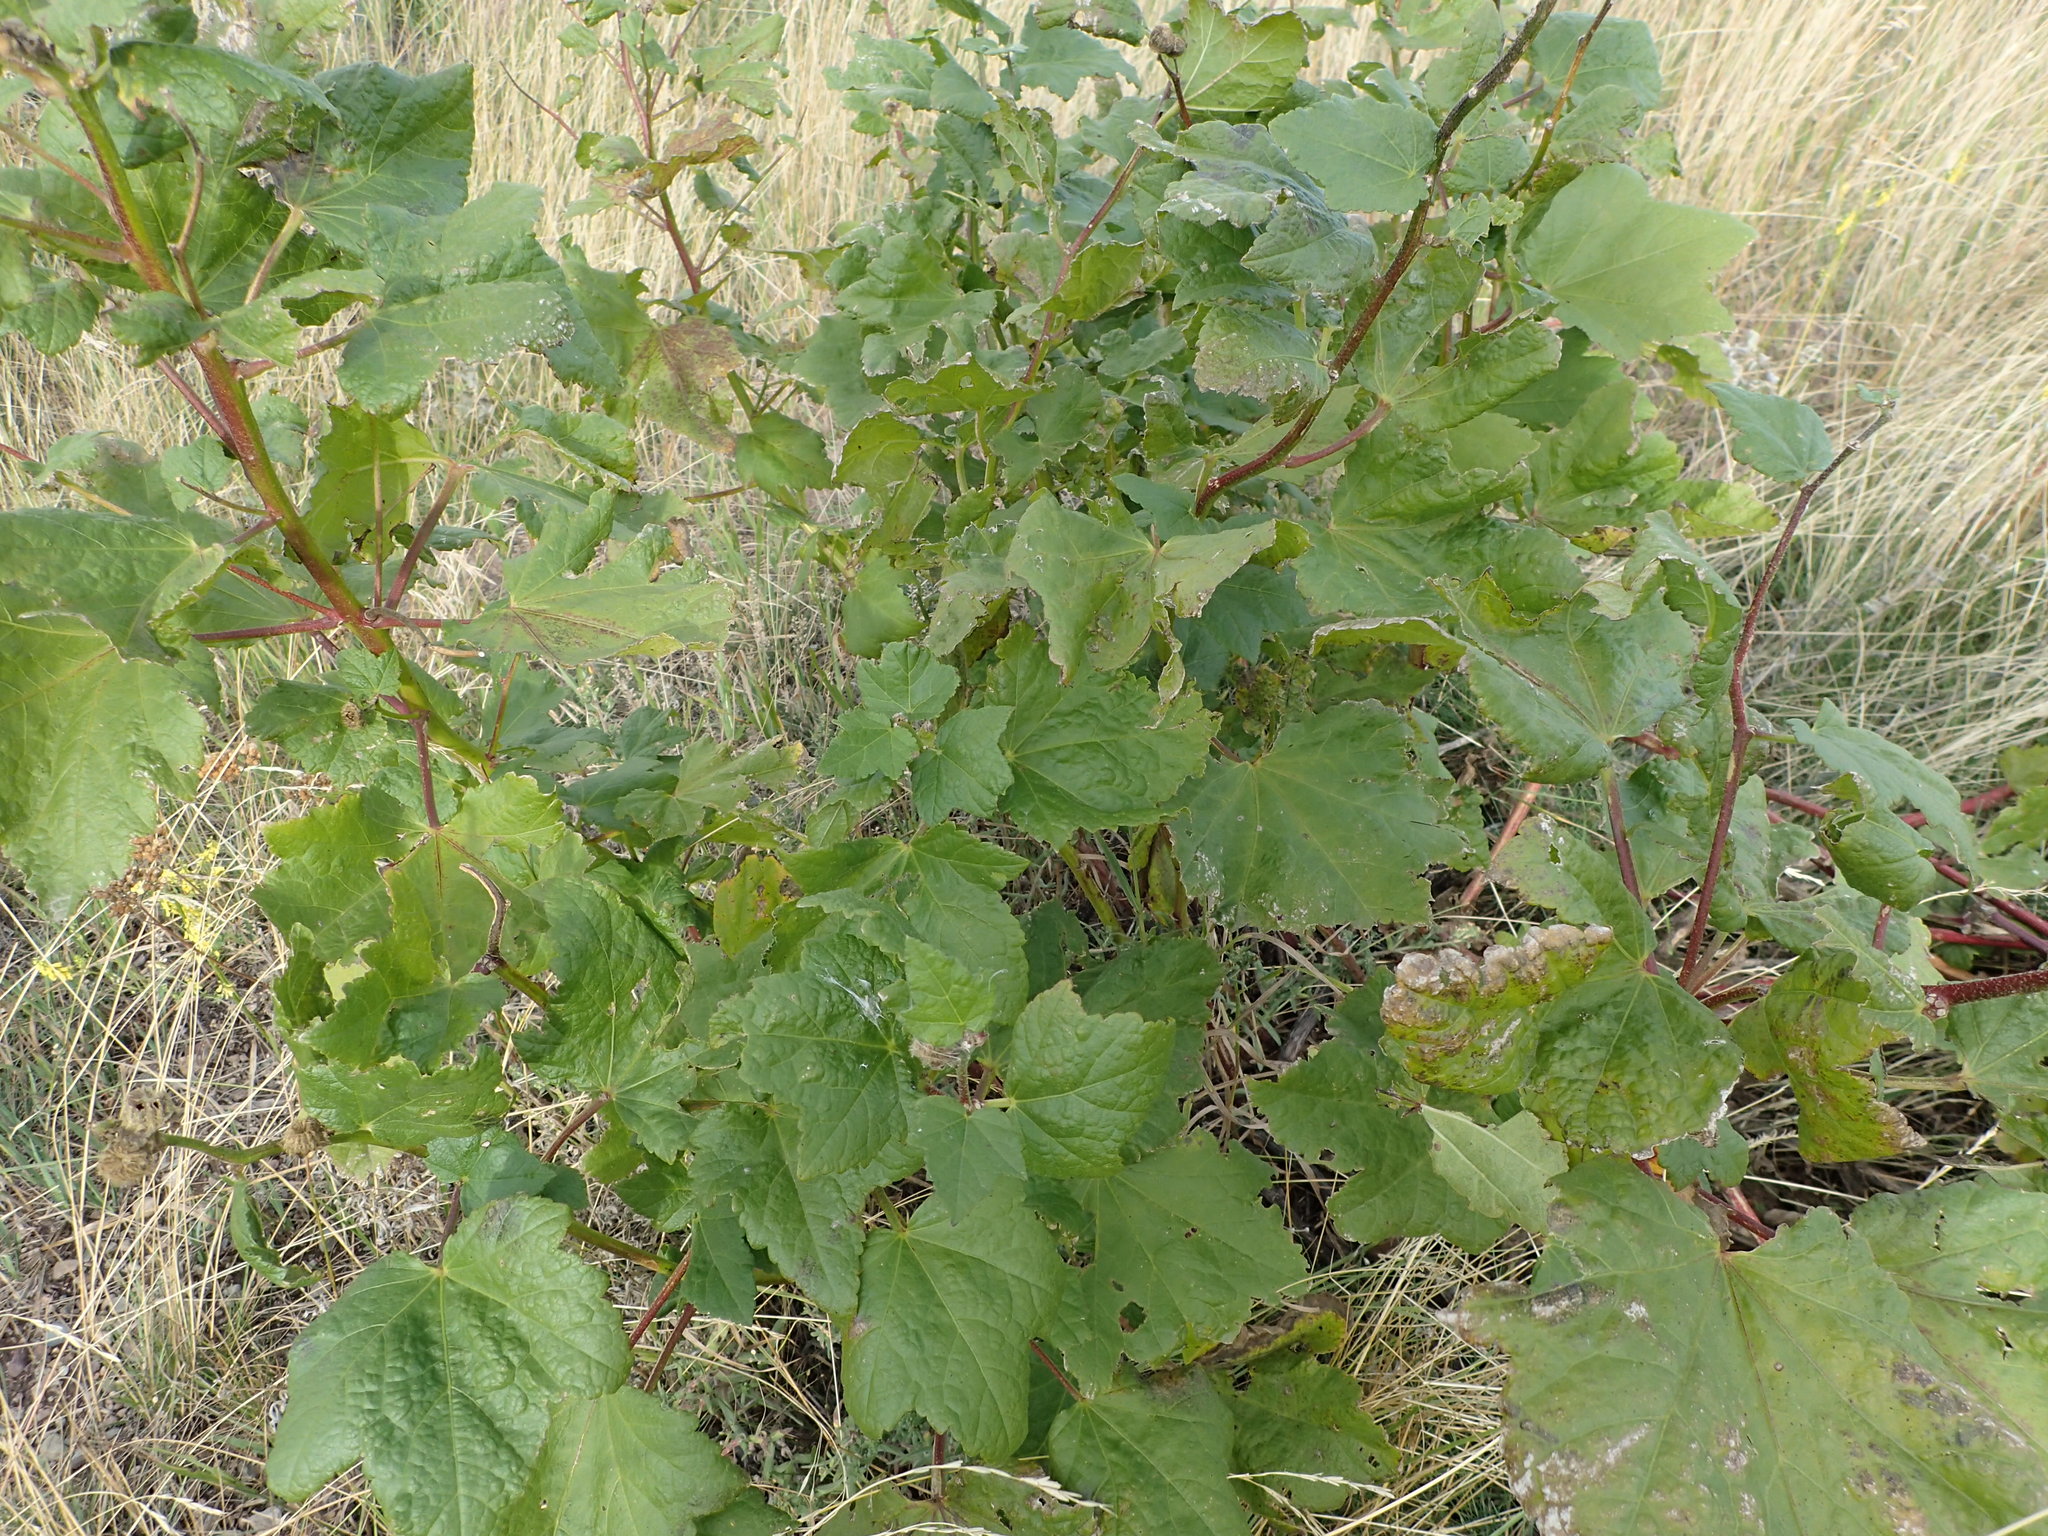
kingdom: Plantae
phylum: Tracheophyta
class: Magnoliopsida
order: Malvales
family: Malvaceae
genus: Iliamna
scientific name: Iliamna rivularis
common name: Wild hollyhock
